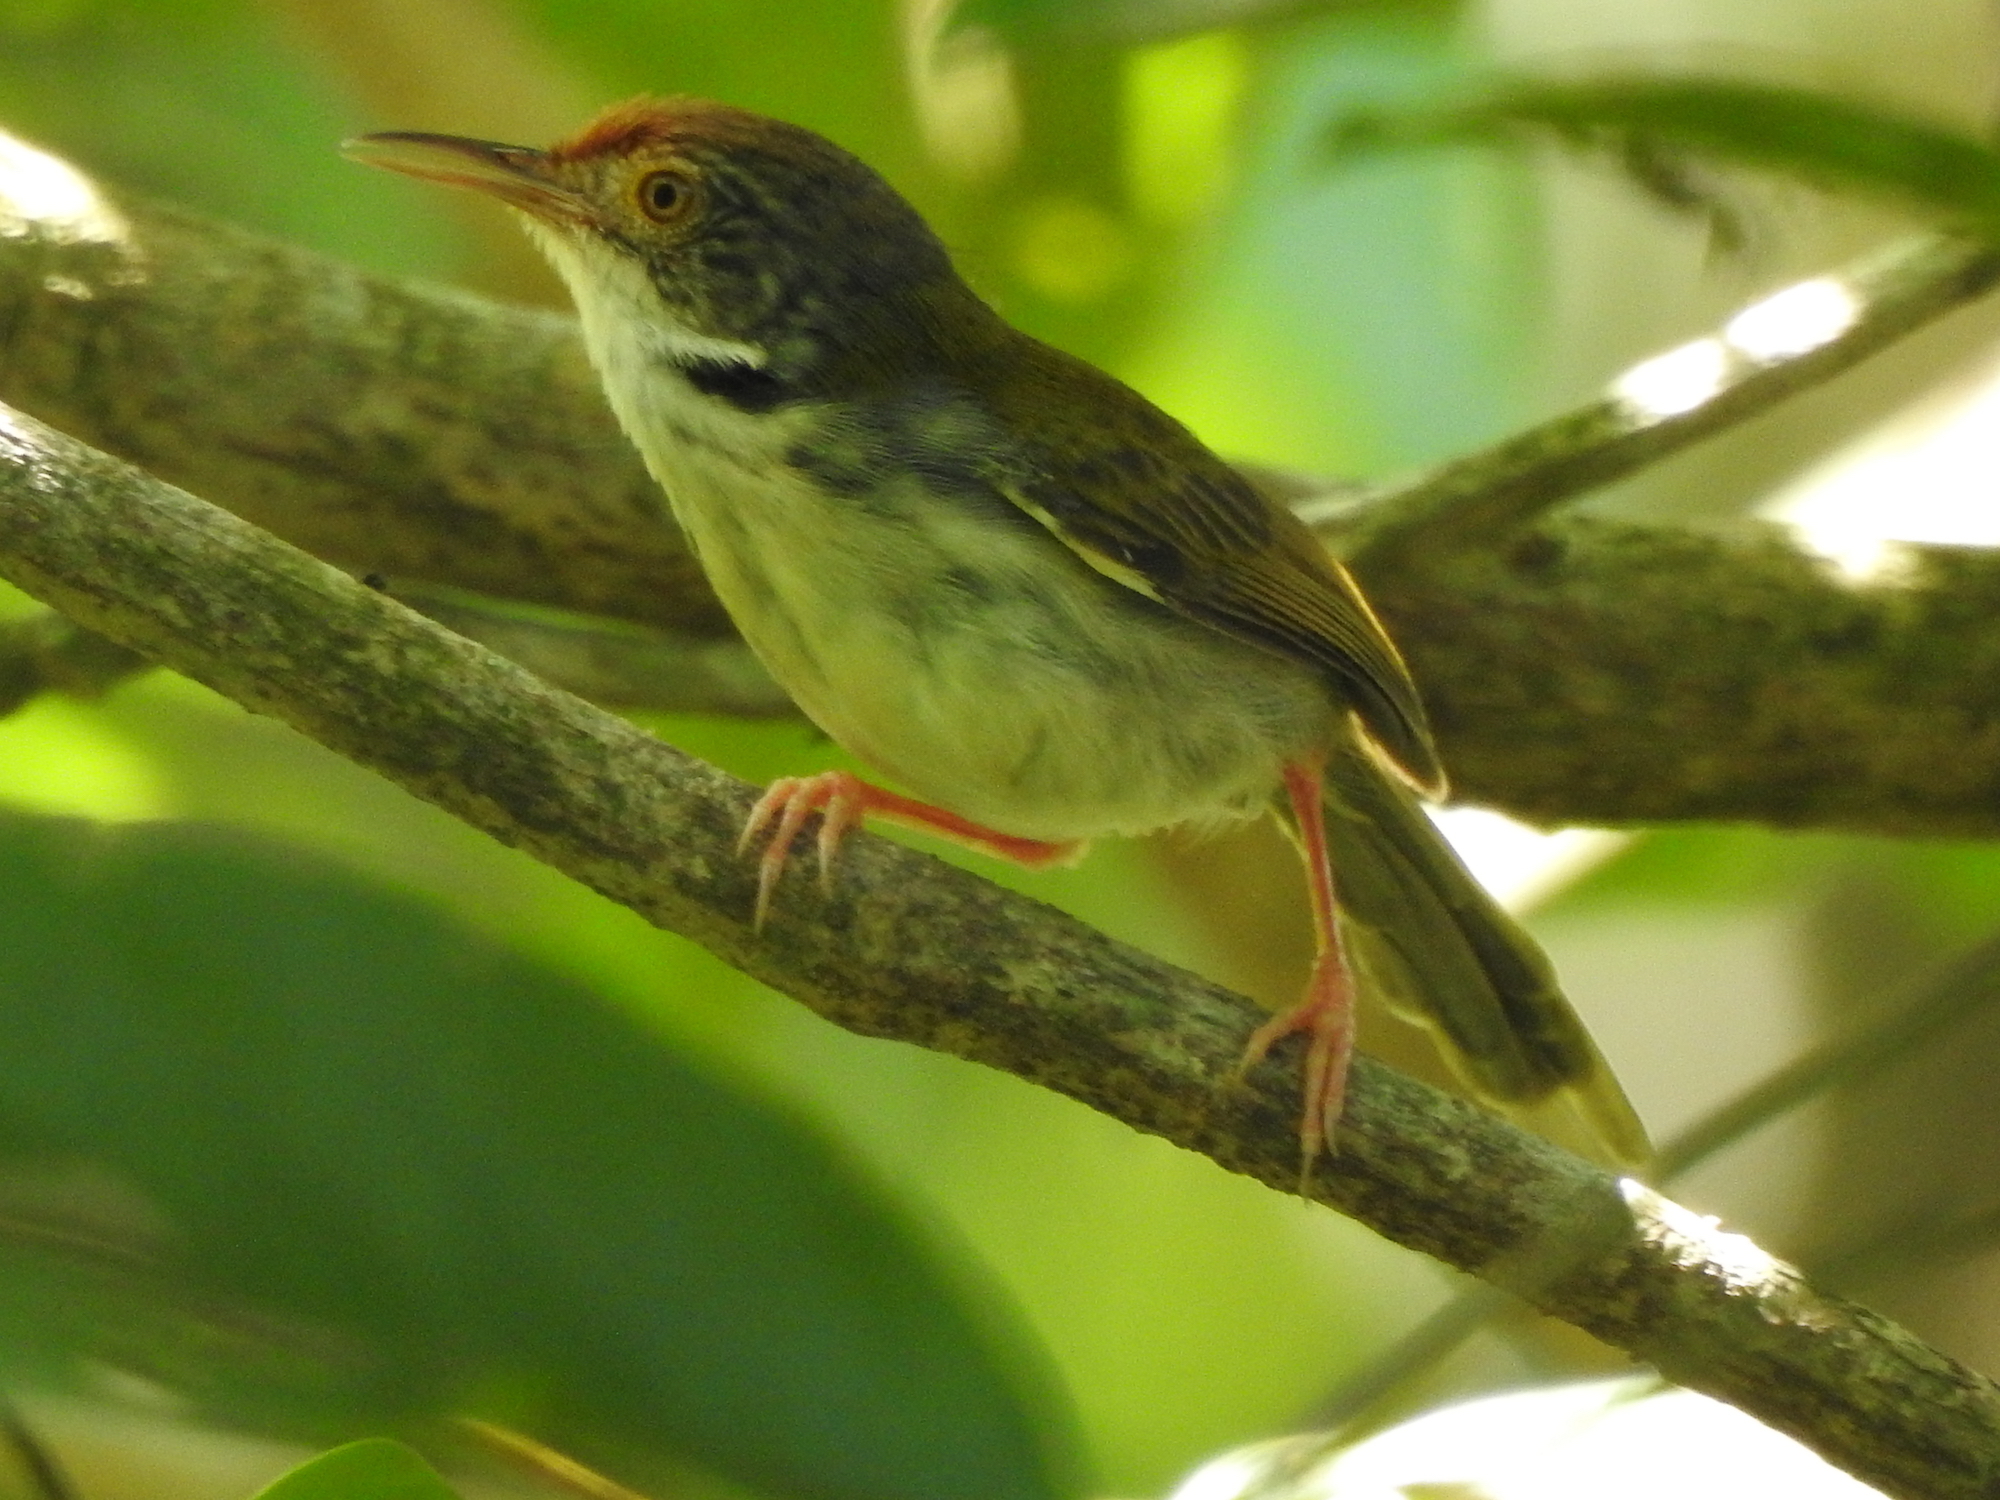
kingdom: Animalia
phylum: Chordata
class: Aves
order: Passeriformes
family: Cisticolidae
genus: Orthotomus
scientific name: Orthotomus sutorius
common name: Common tailorbird
